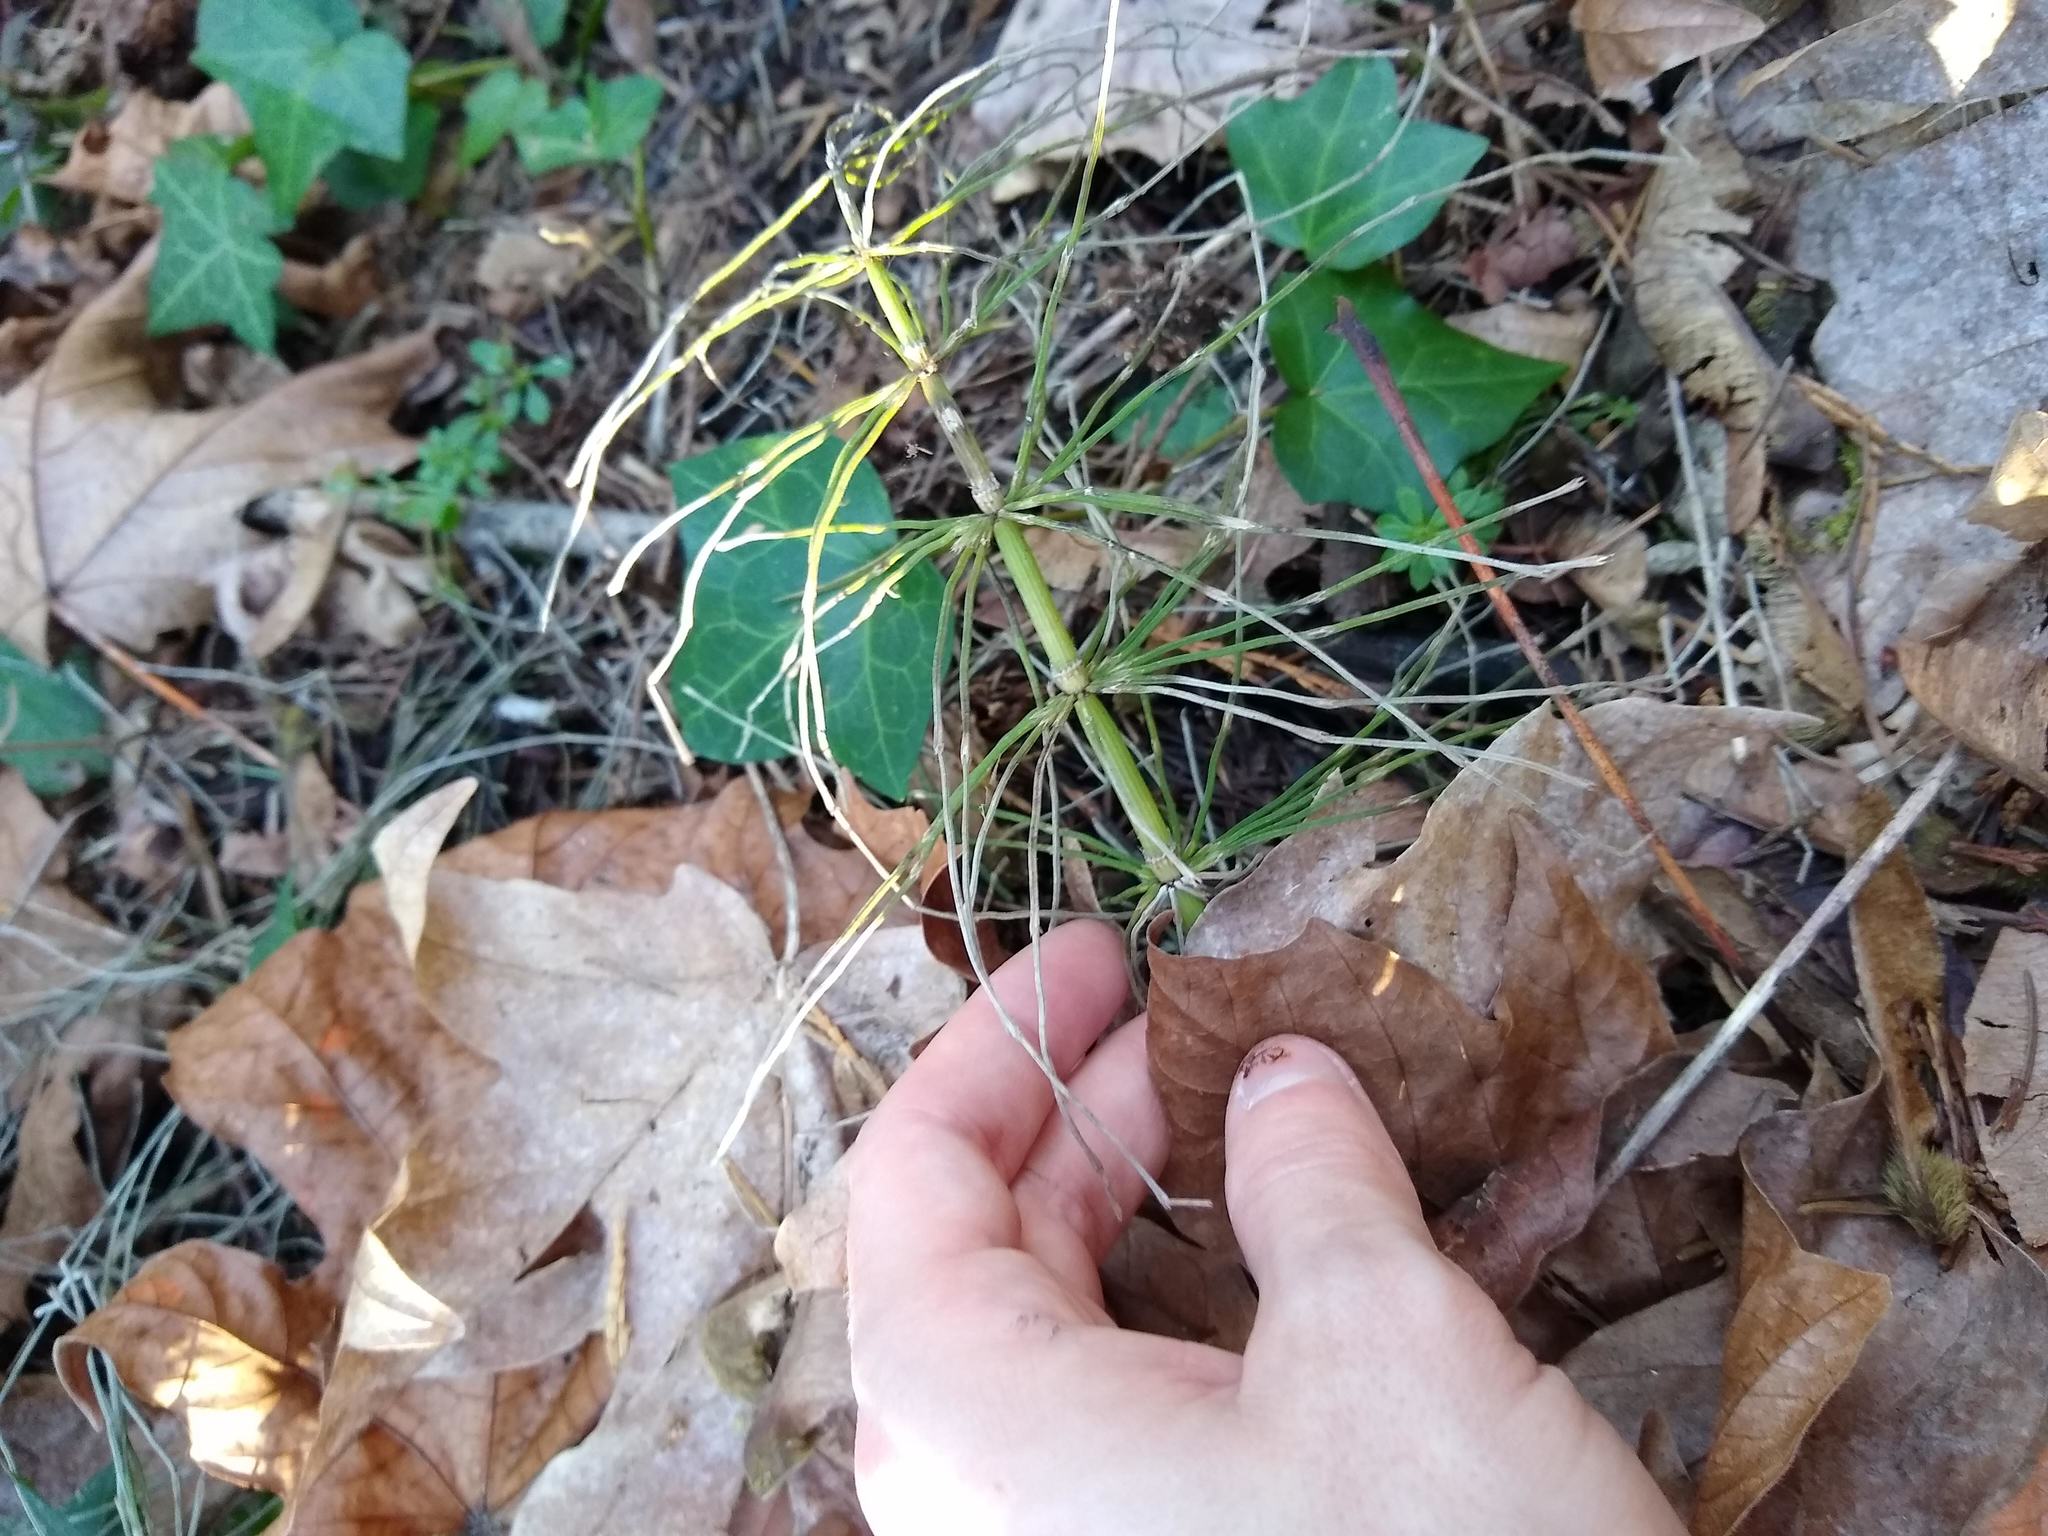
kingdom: Plantae
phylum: Tracheophyta
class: Polypodiopsida
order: Equisetales
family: Equisetaceae
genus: Equisetum
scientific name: Equisetum arvense
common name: Field horsetail
